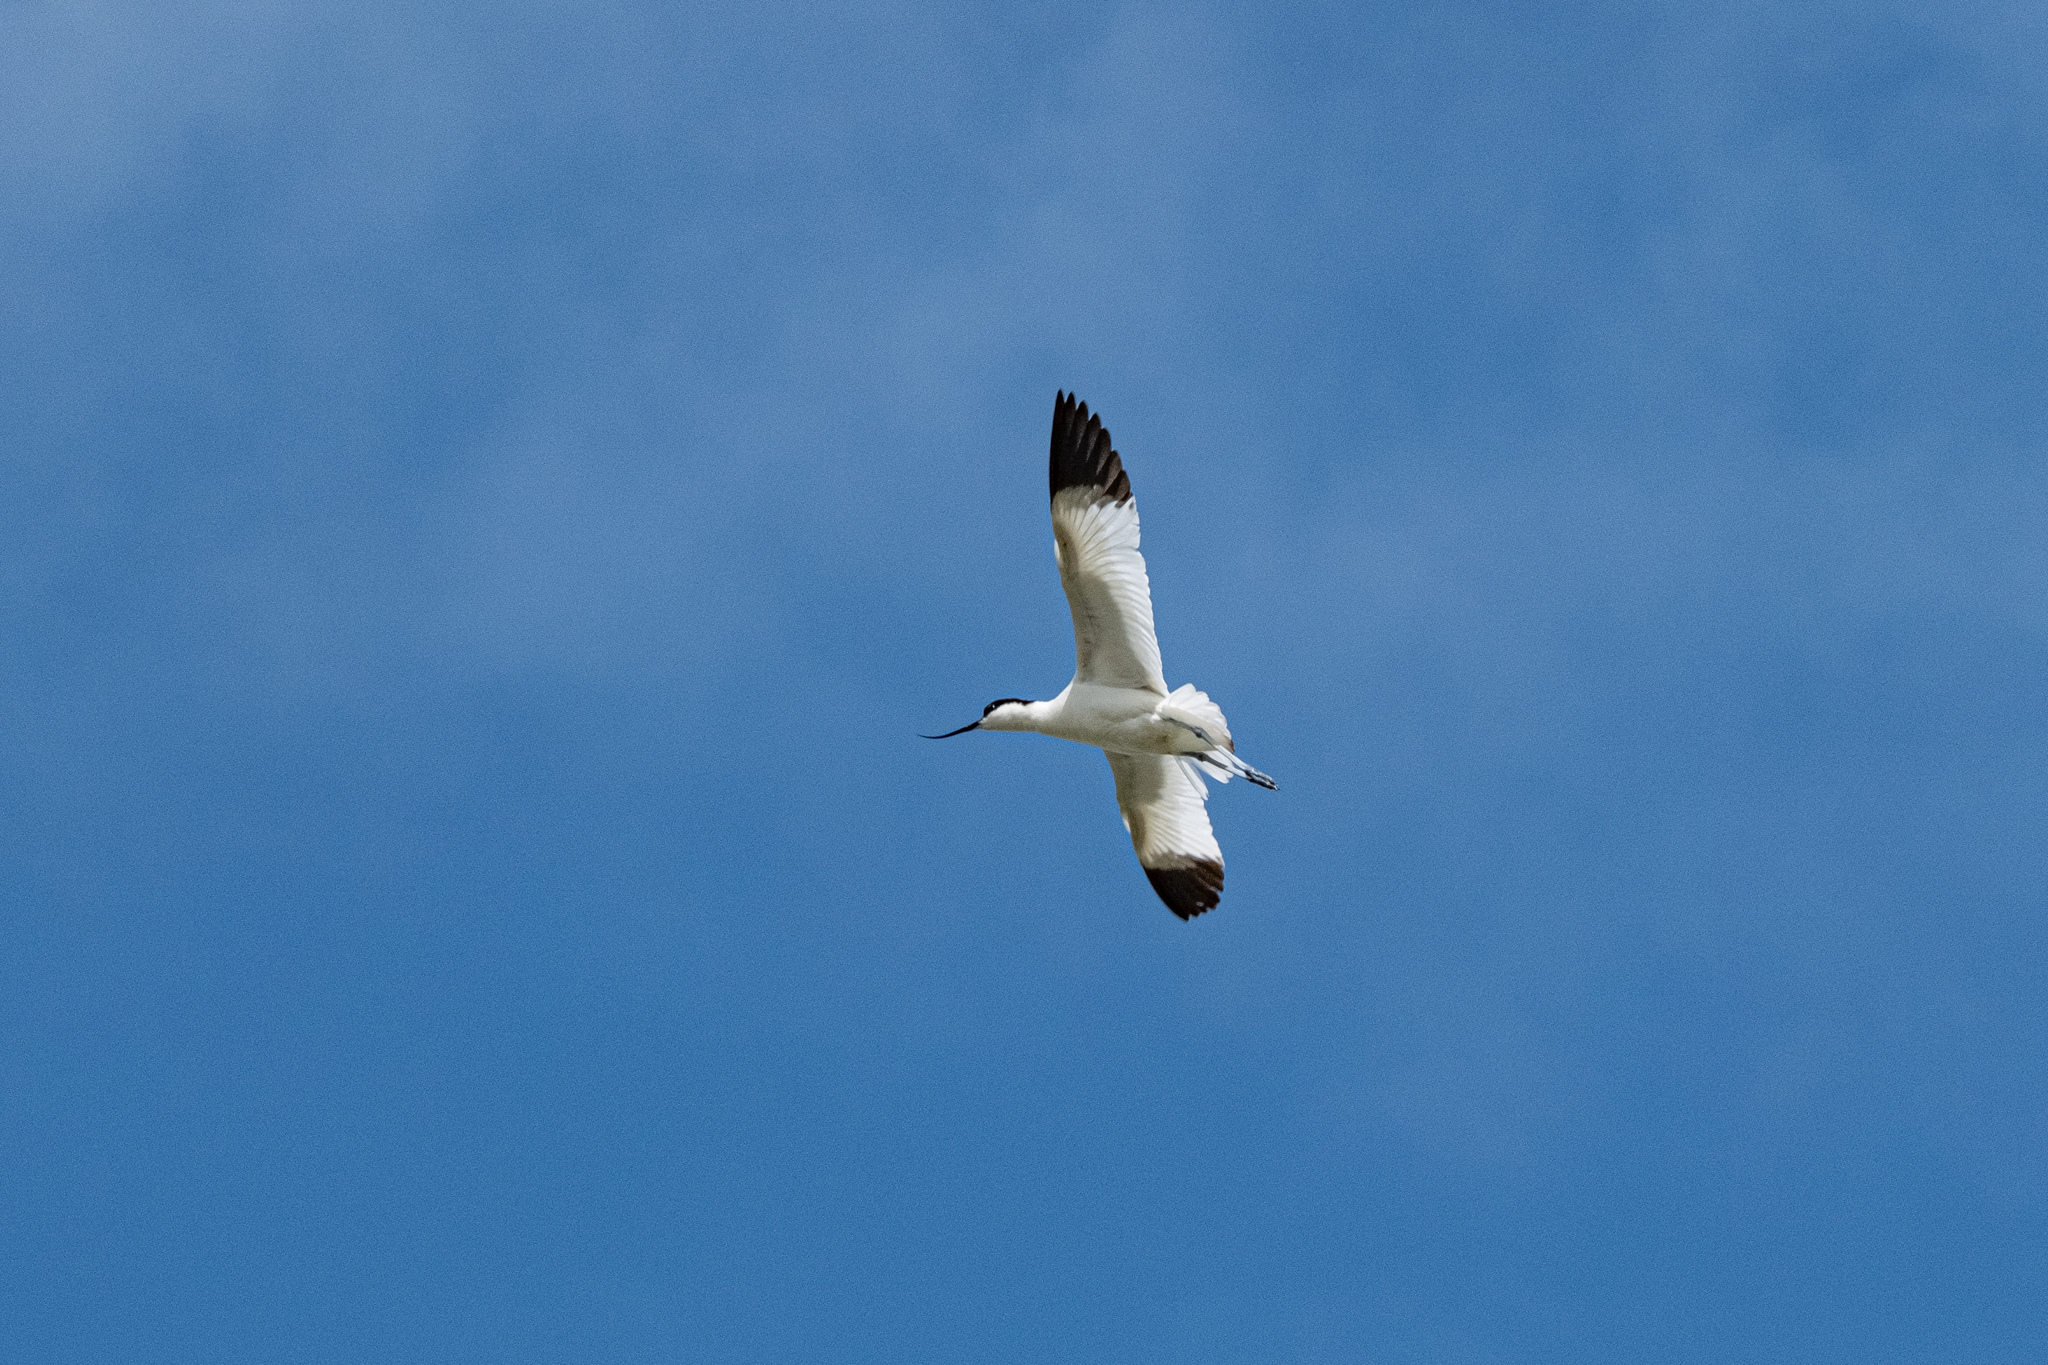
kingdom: Animalia
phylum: Chordata
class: Aves
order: Charadriiformes
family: Recurvirostridae
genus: Recurvirostra
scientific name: Recurvirostra avosetta
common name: Pied avocet
